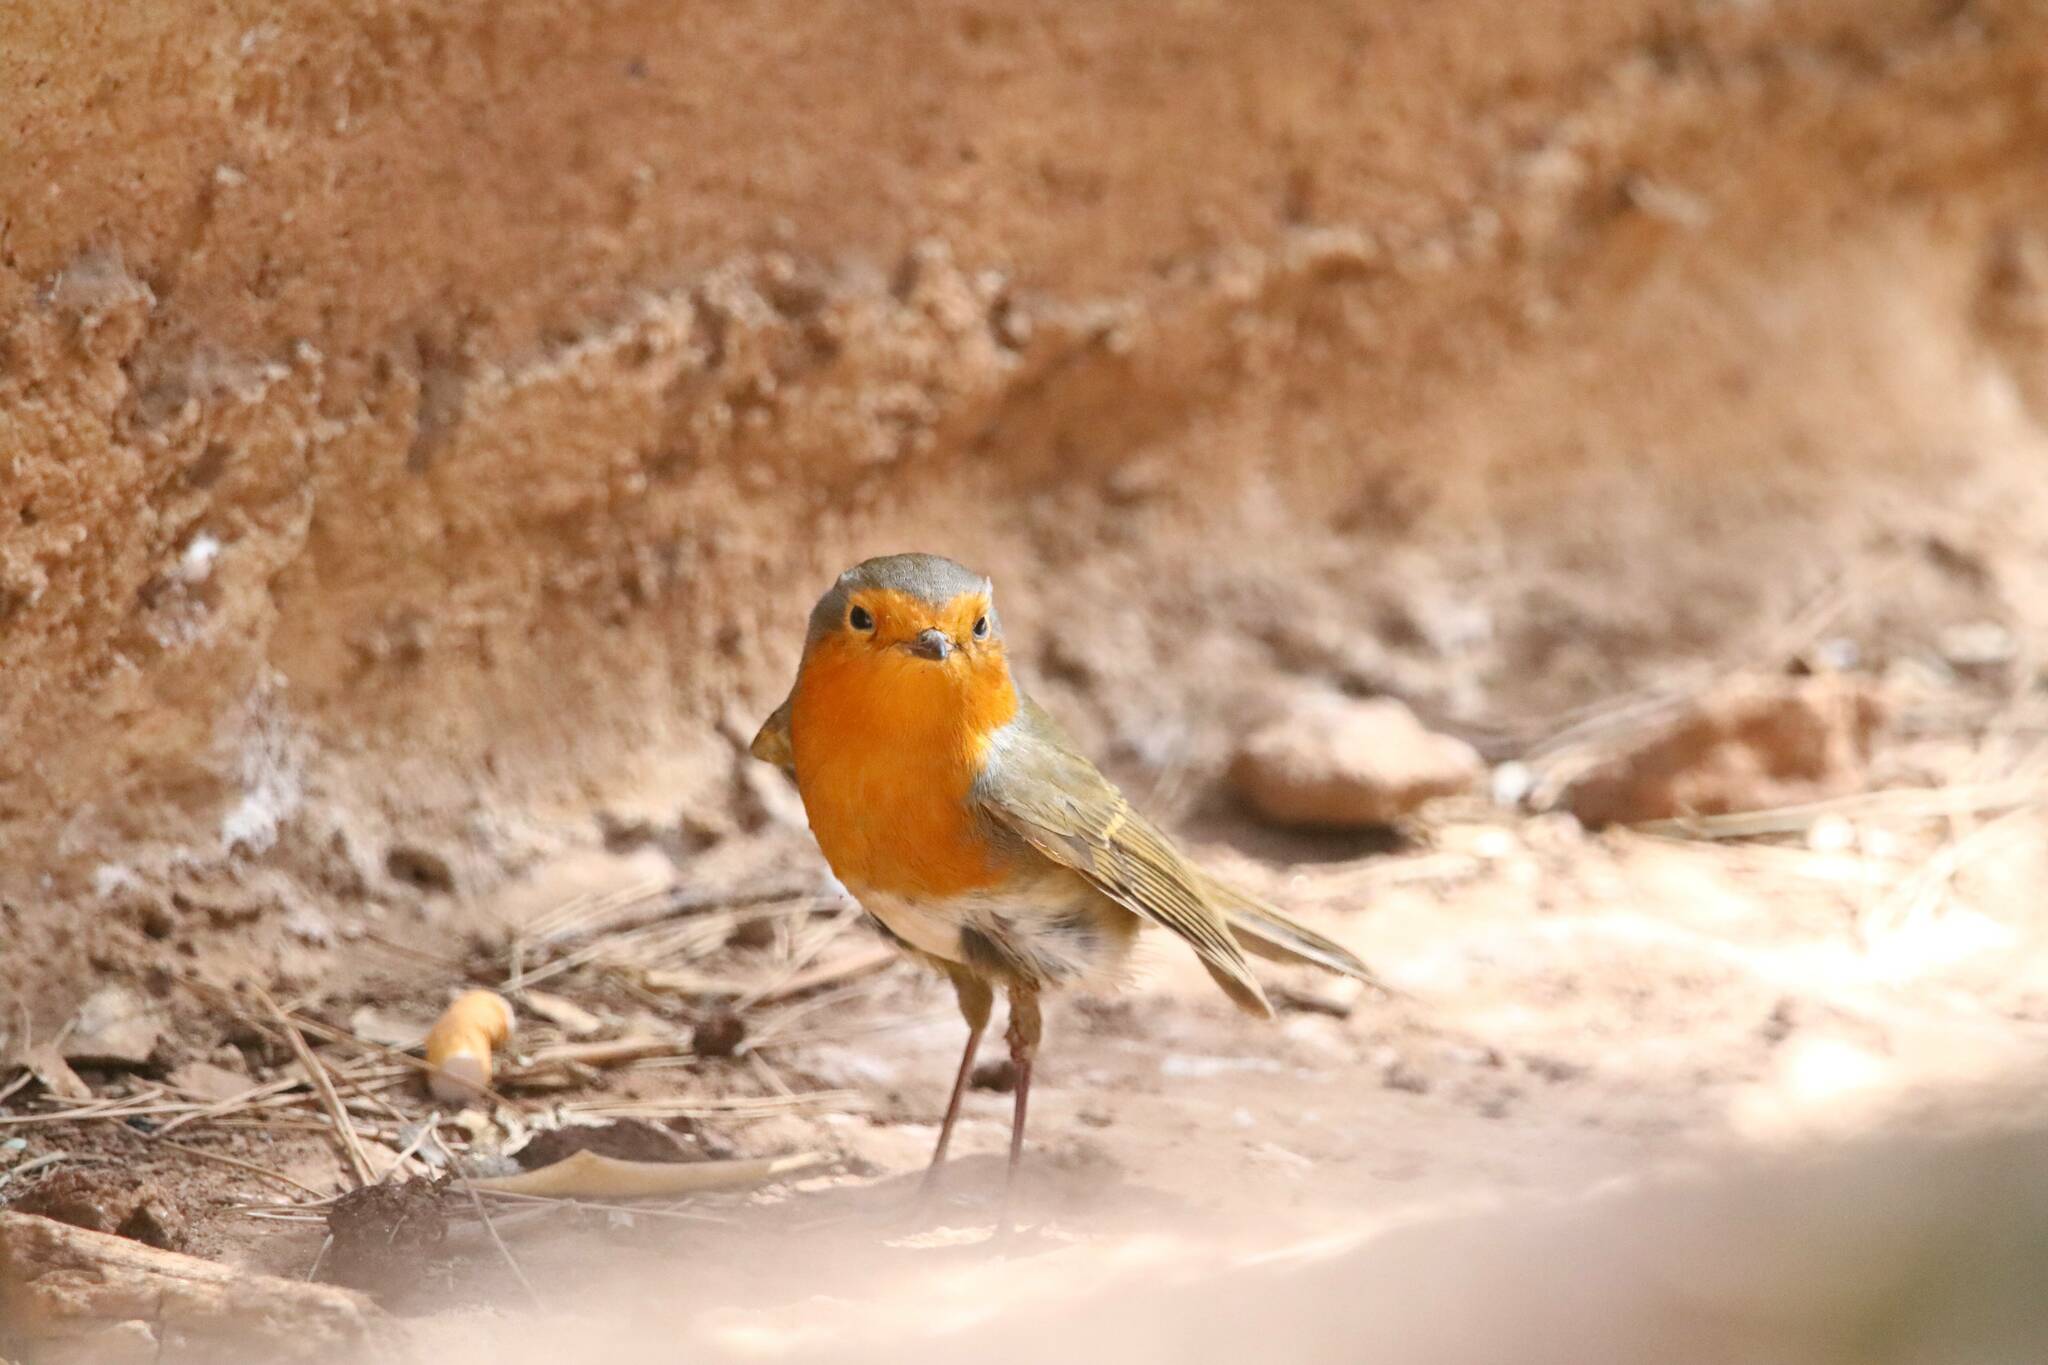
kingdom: Animalia
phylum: Chordata
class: Aves
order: Passeriformes
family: Muscicapidae
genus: Erithacus
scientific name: Erithacus rubecula
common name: European robin
